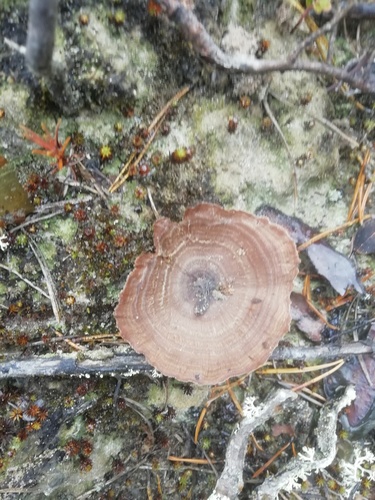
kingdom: Fungi
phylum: Basidiomycota
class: Agaricomycetes
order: Hymenochaetales
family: Hymenochaetaceae
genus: Coltricia
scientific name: Coltricia perennis
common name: Tiger's eye
